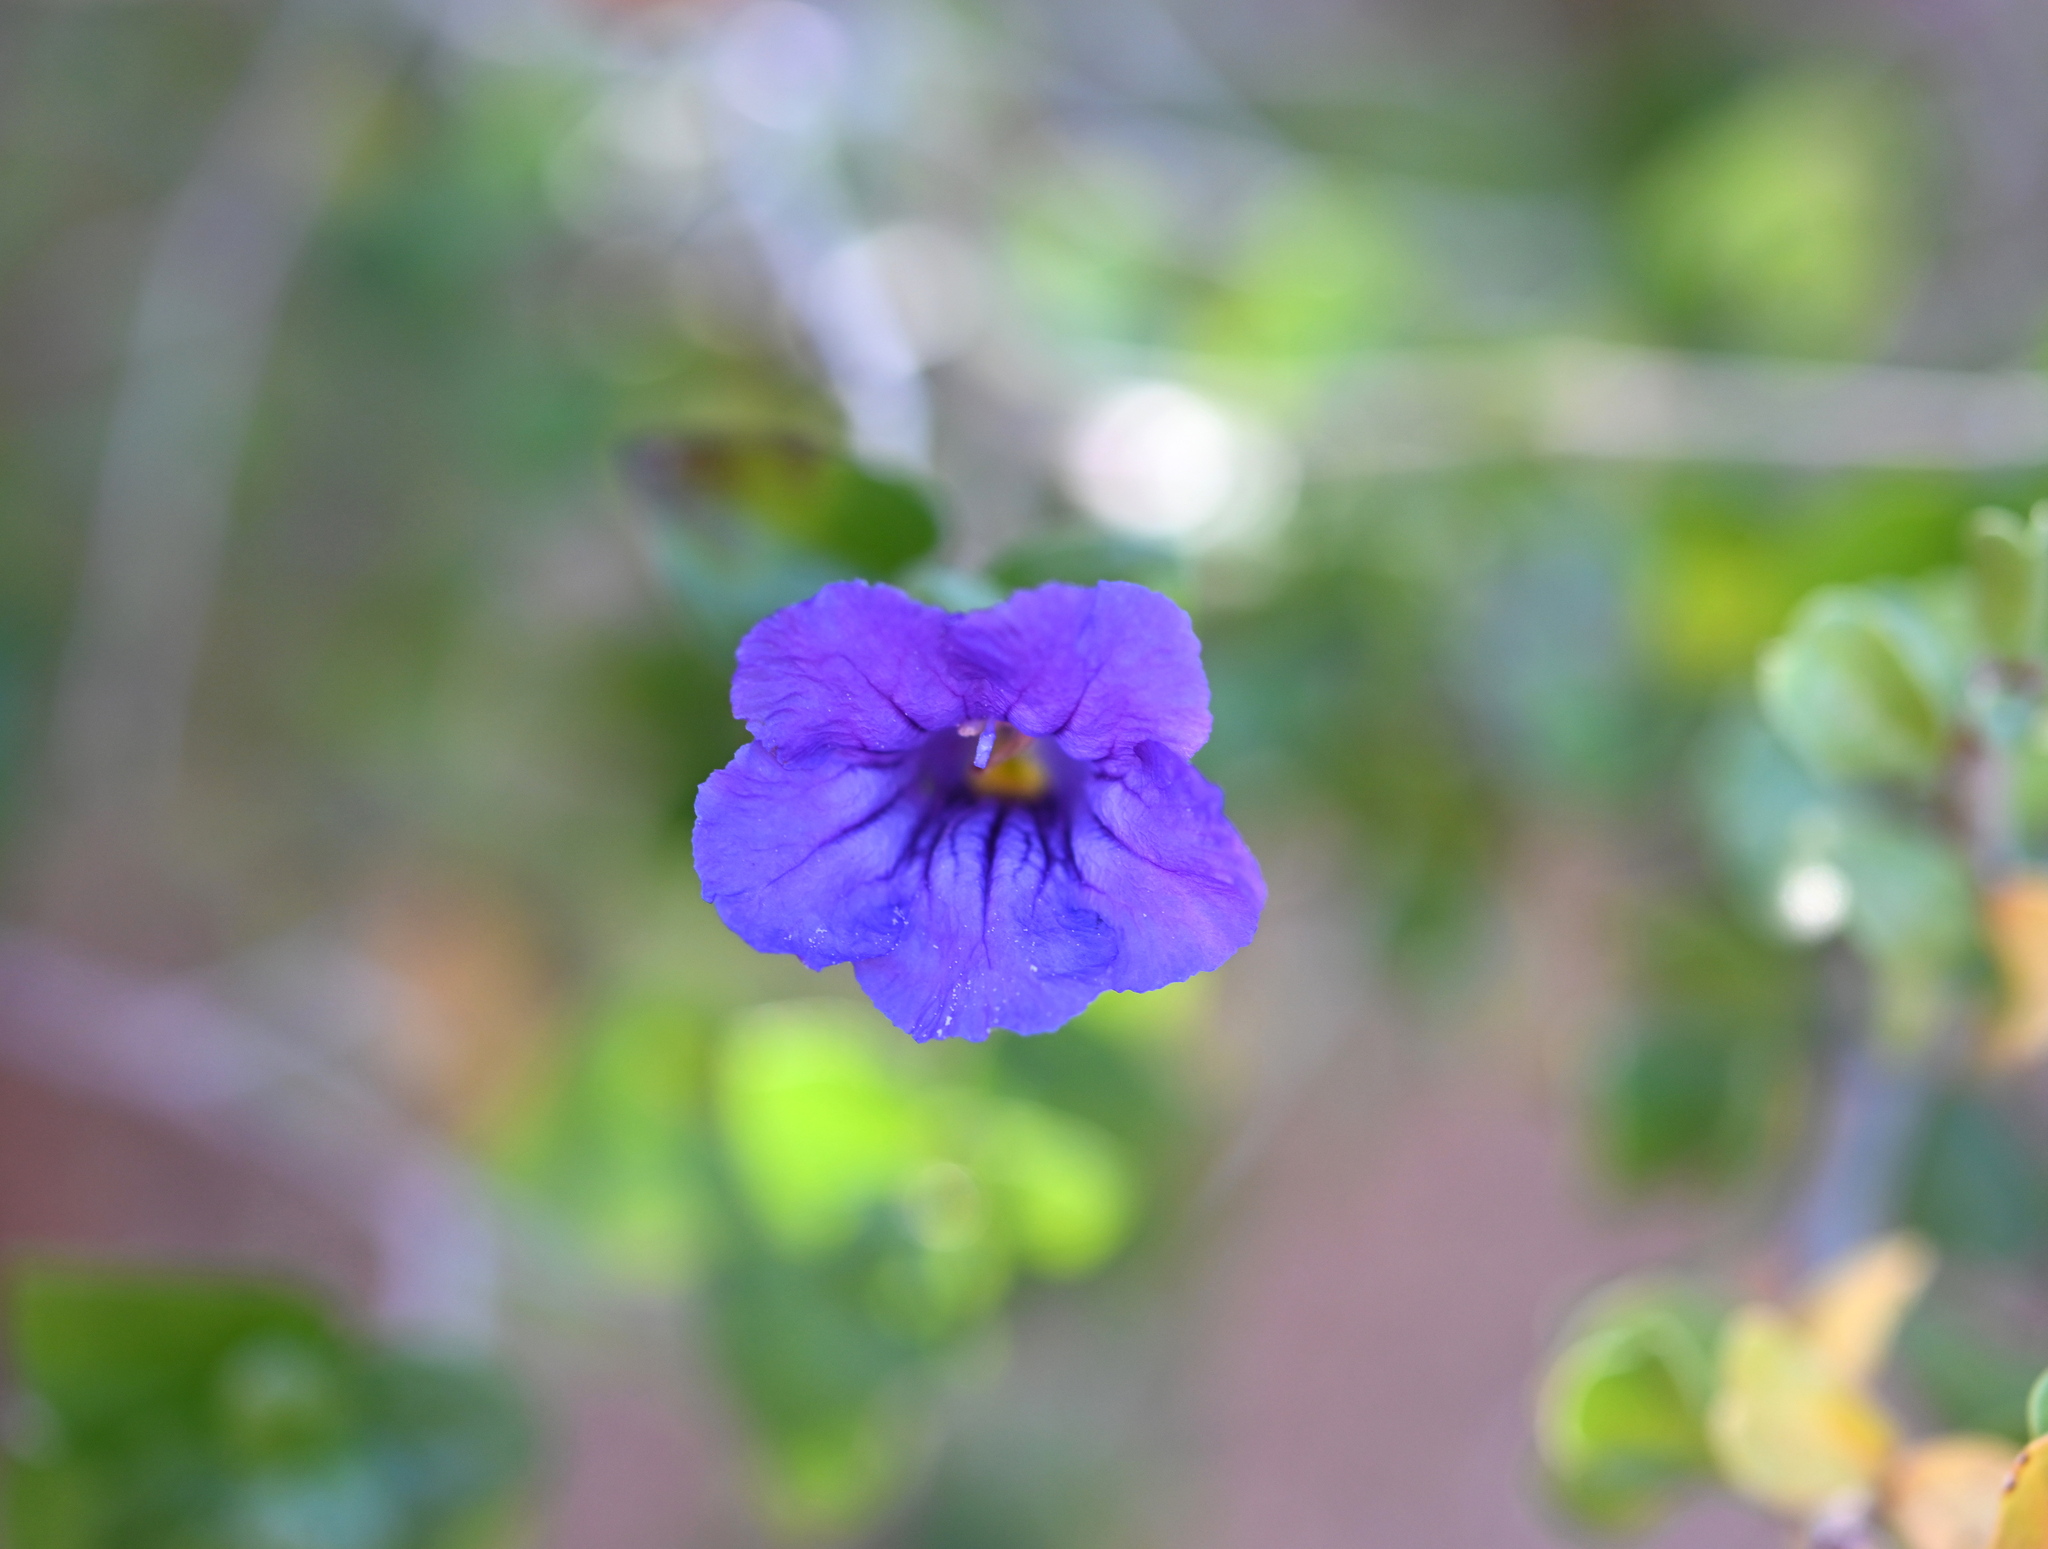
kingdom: Plantae
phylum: Tracheophyta
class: Magnoliopsida
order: Lamiales
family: Acanthaceae
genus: Ruellia
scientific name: Ruellia californica
